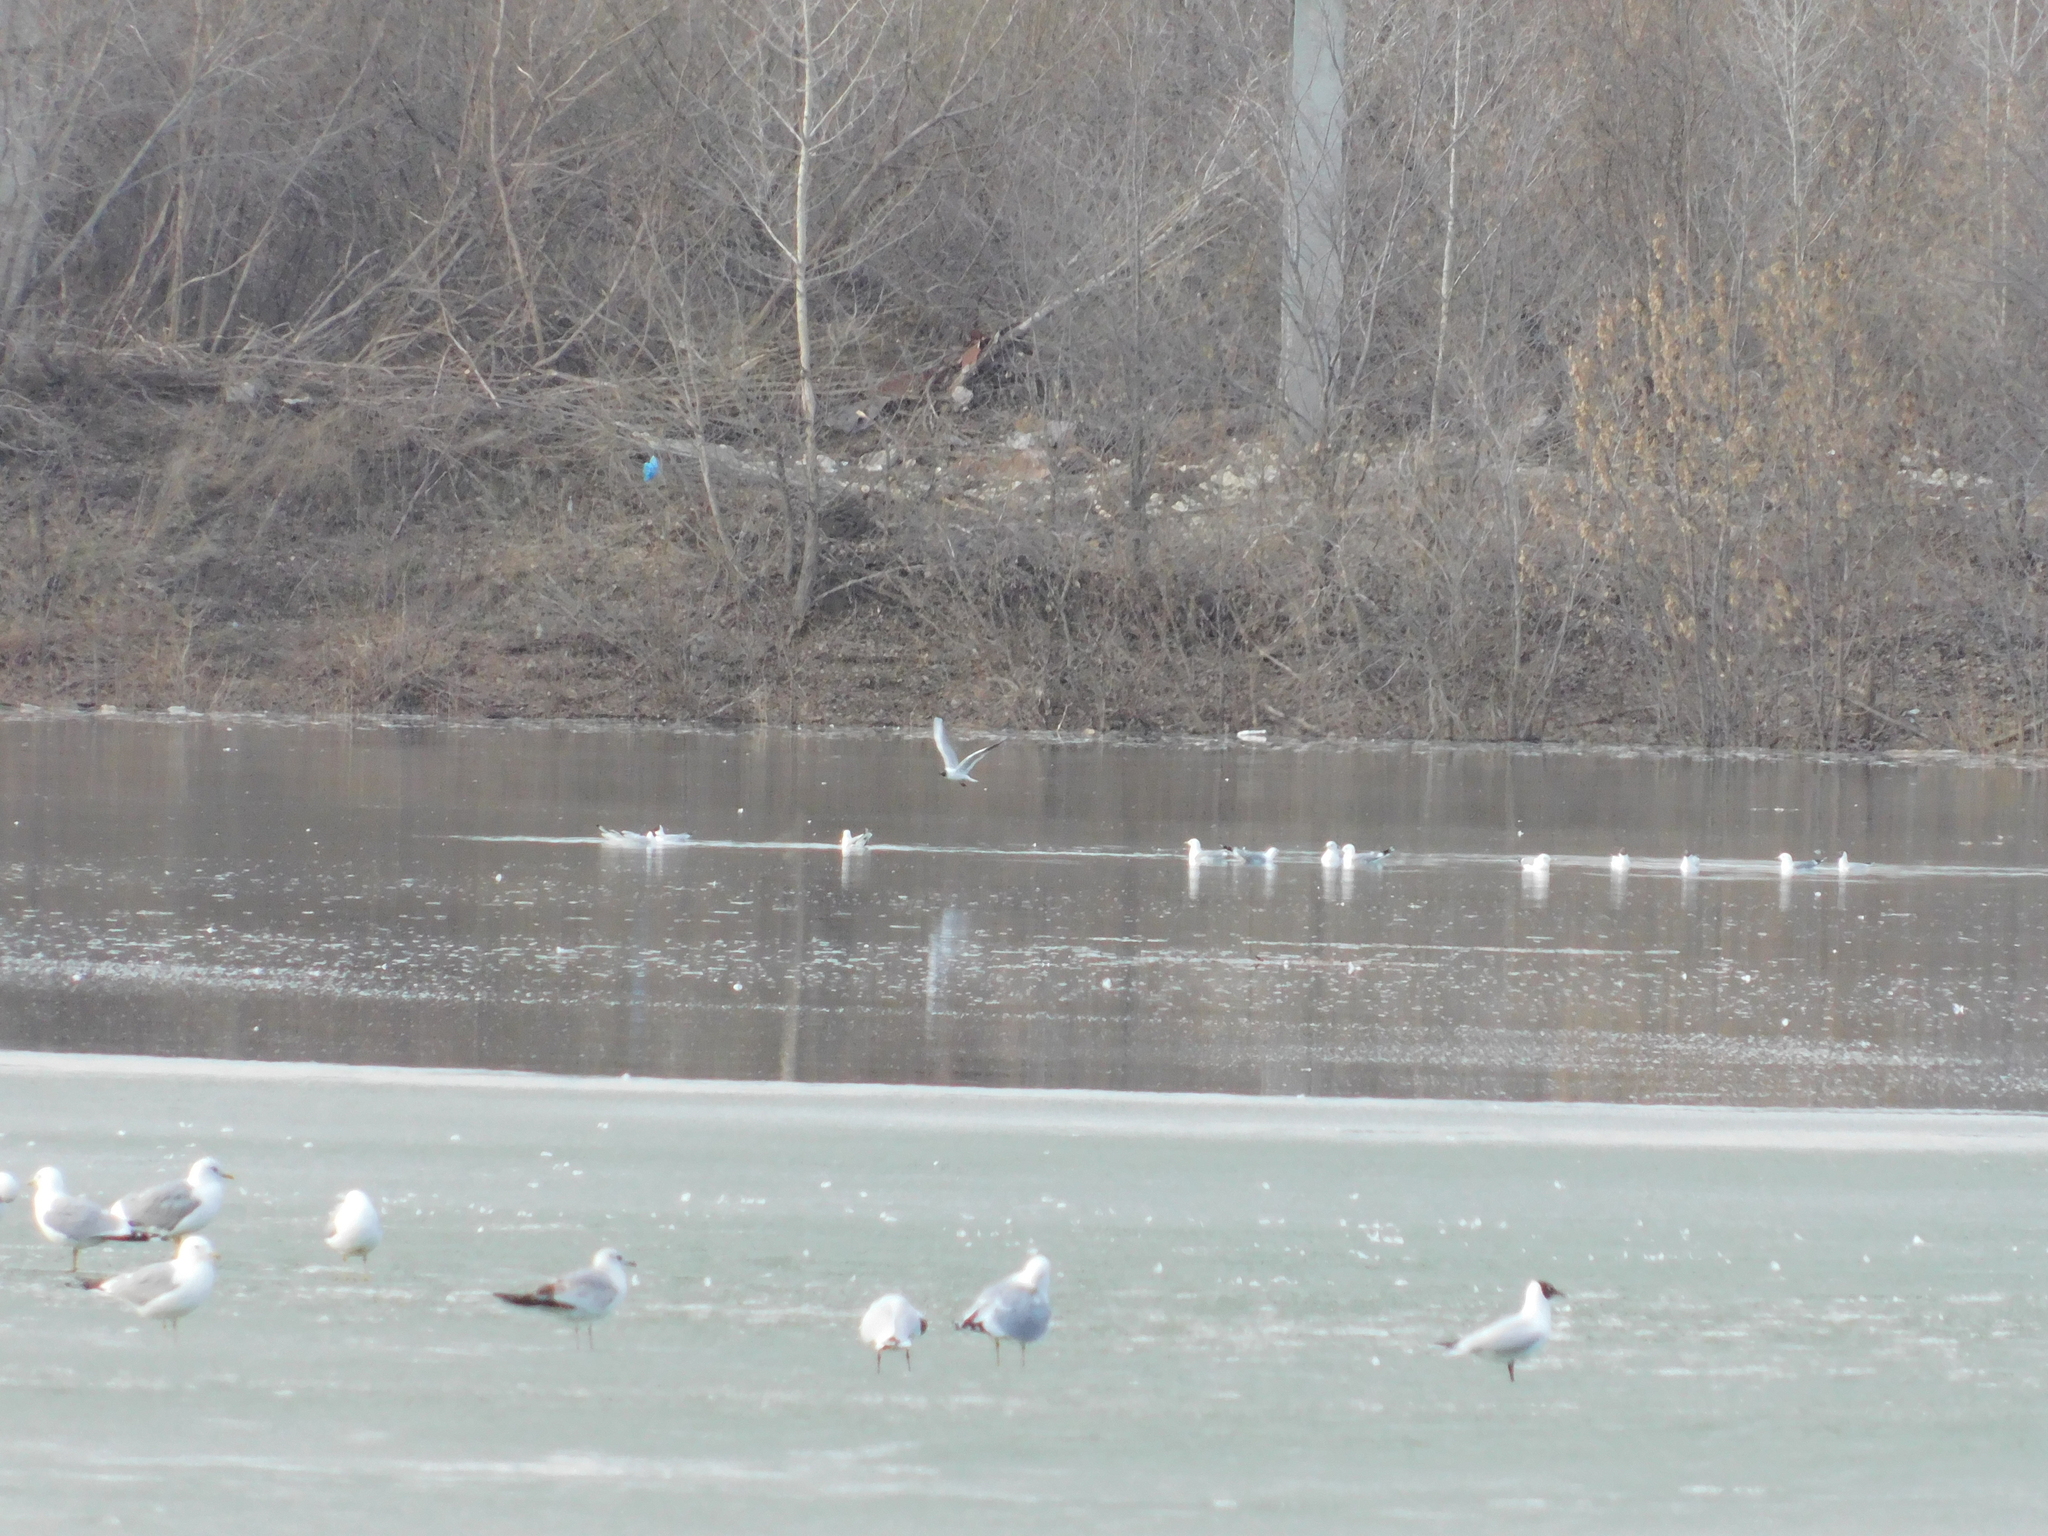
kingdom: Animalia
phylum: Chordata
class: Aves
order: Charadriiformes
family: Laridae
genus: Chroicocephalus
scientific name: Chroicocephalus ridibundus
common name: Black-headed gull
